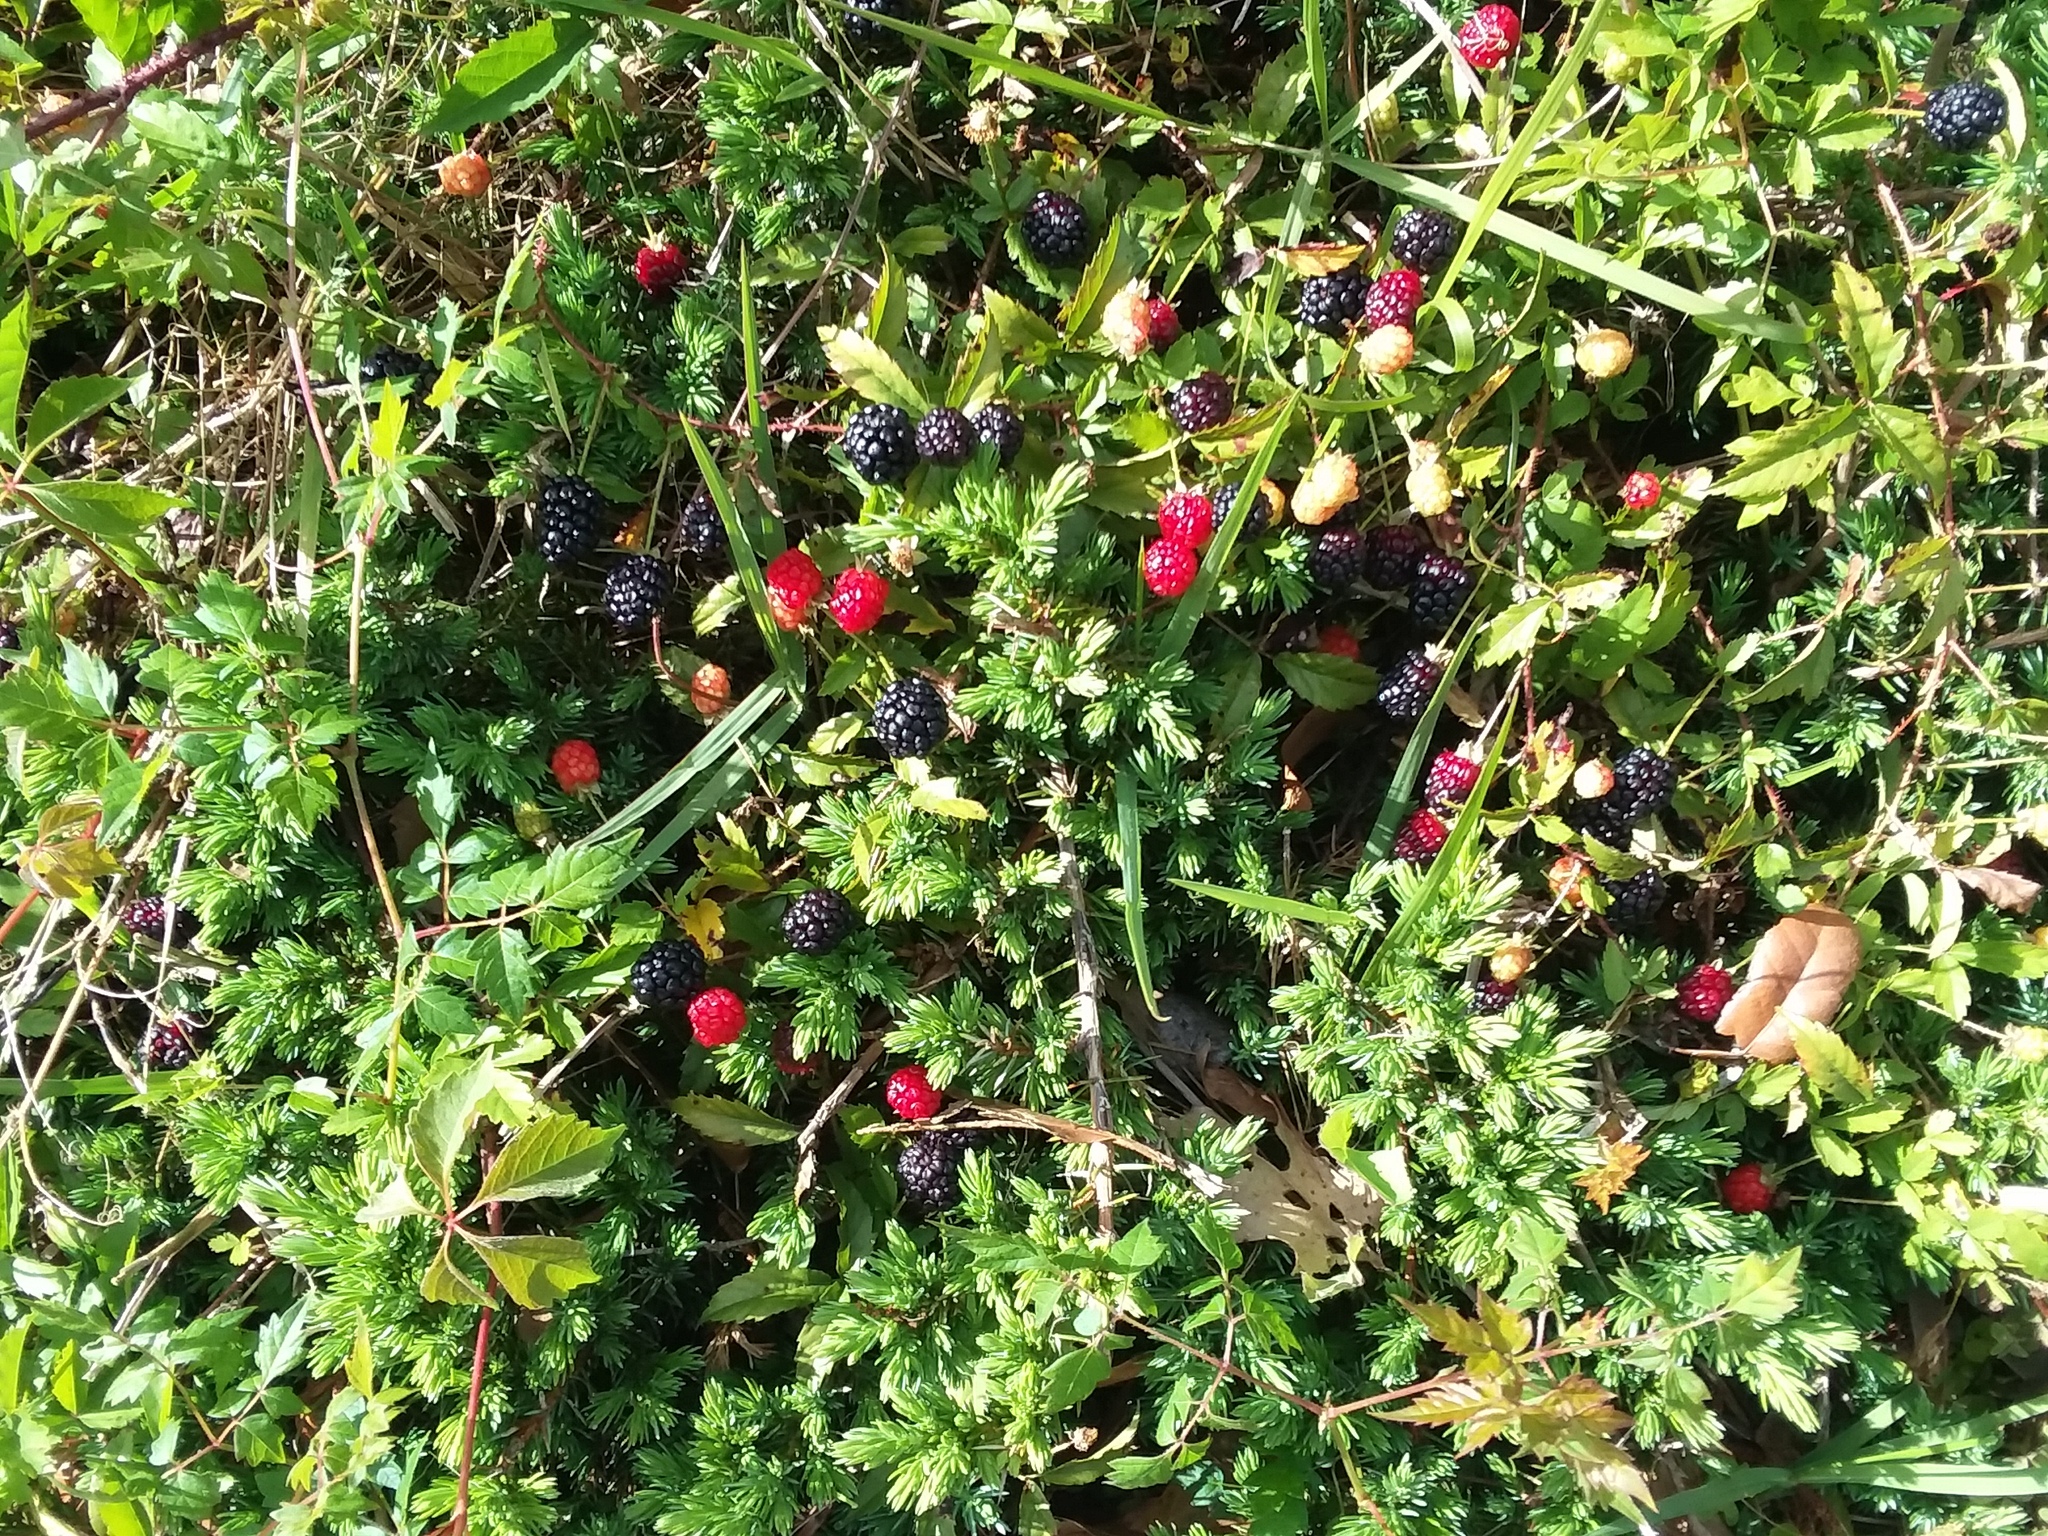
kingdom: Plantae
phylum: Tracheophyta
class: Magnoliopsida
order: Rosales
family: Rosaceae
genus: Rubus
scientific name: Rubus trivialis
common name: Southern dewberry
